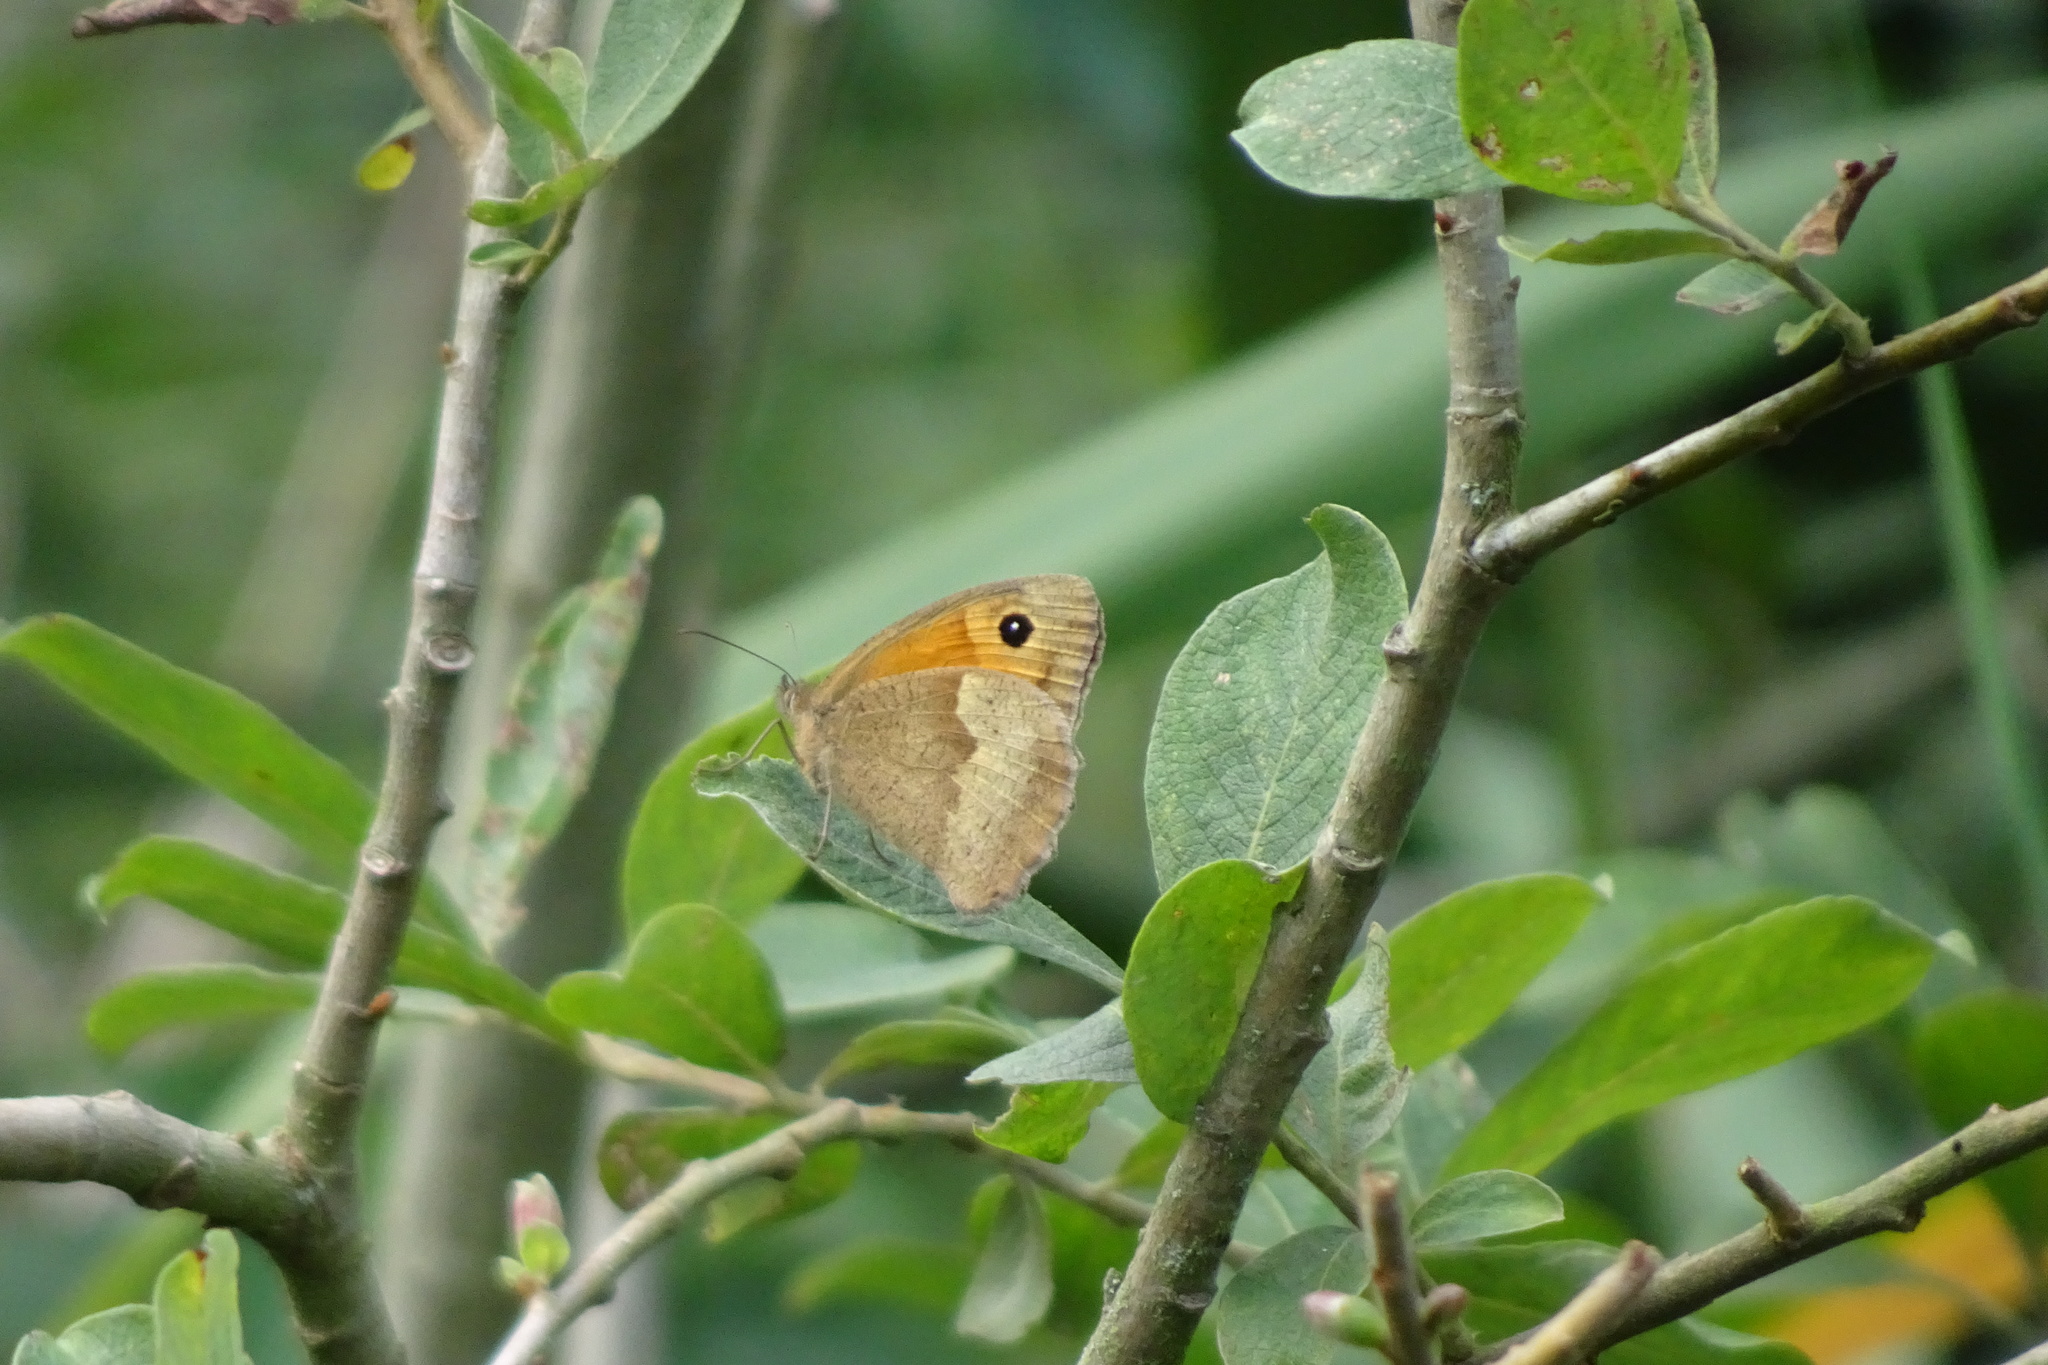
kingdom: Animalia
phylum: Arthropoda
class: Insecta
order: Lepidoptera
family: Nymphalidae
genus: Maniola
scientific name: Maniola jurtina
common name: Meadow brown
